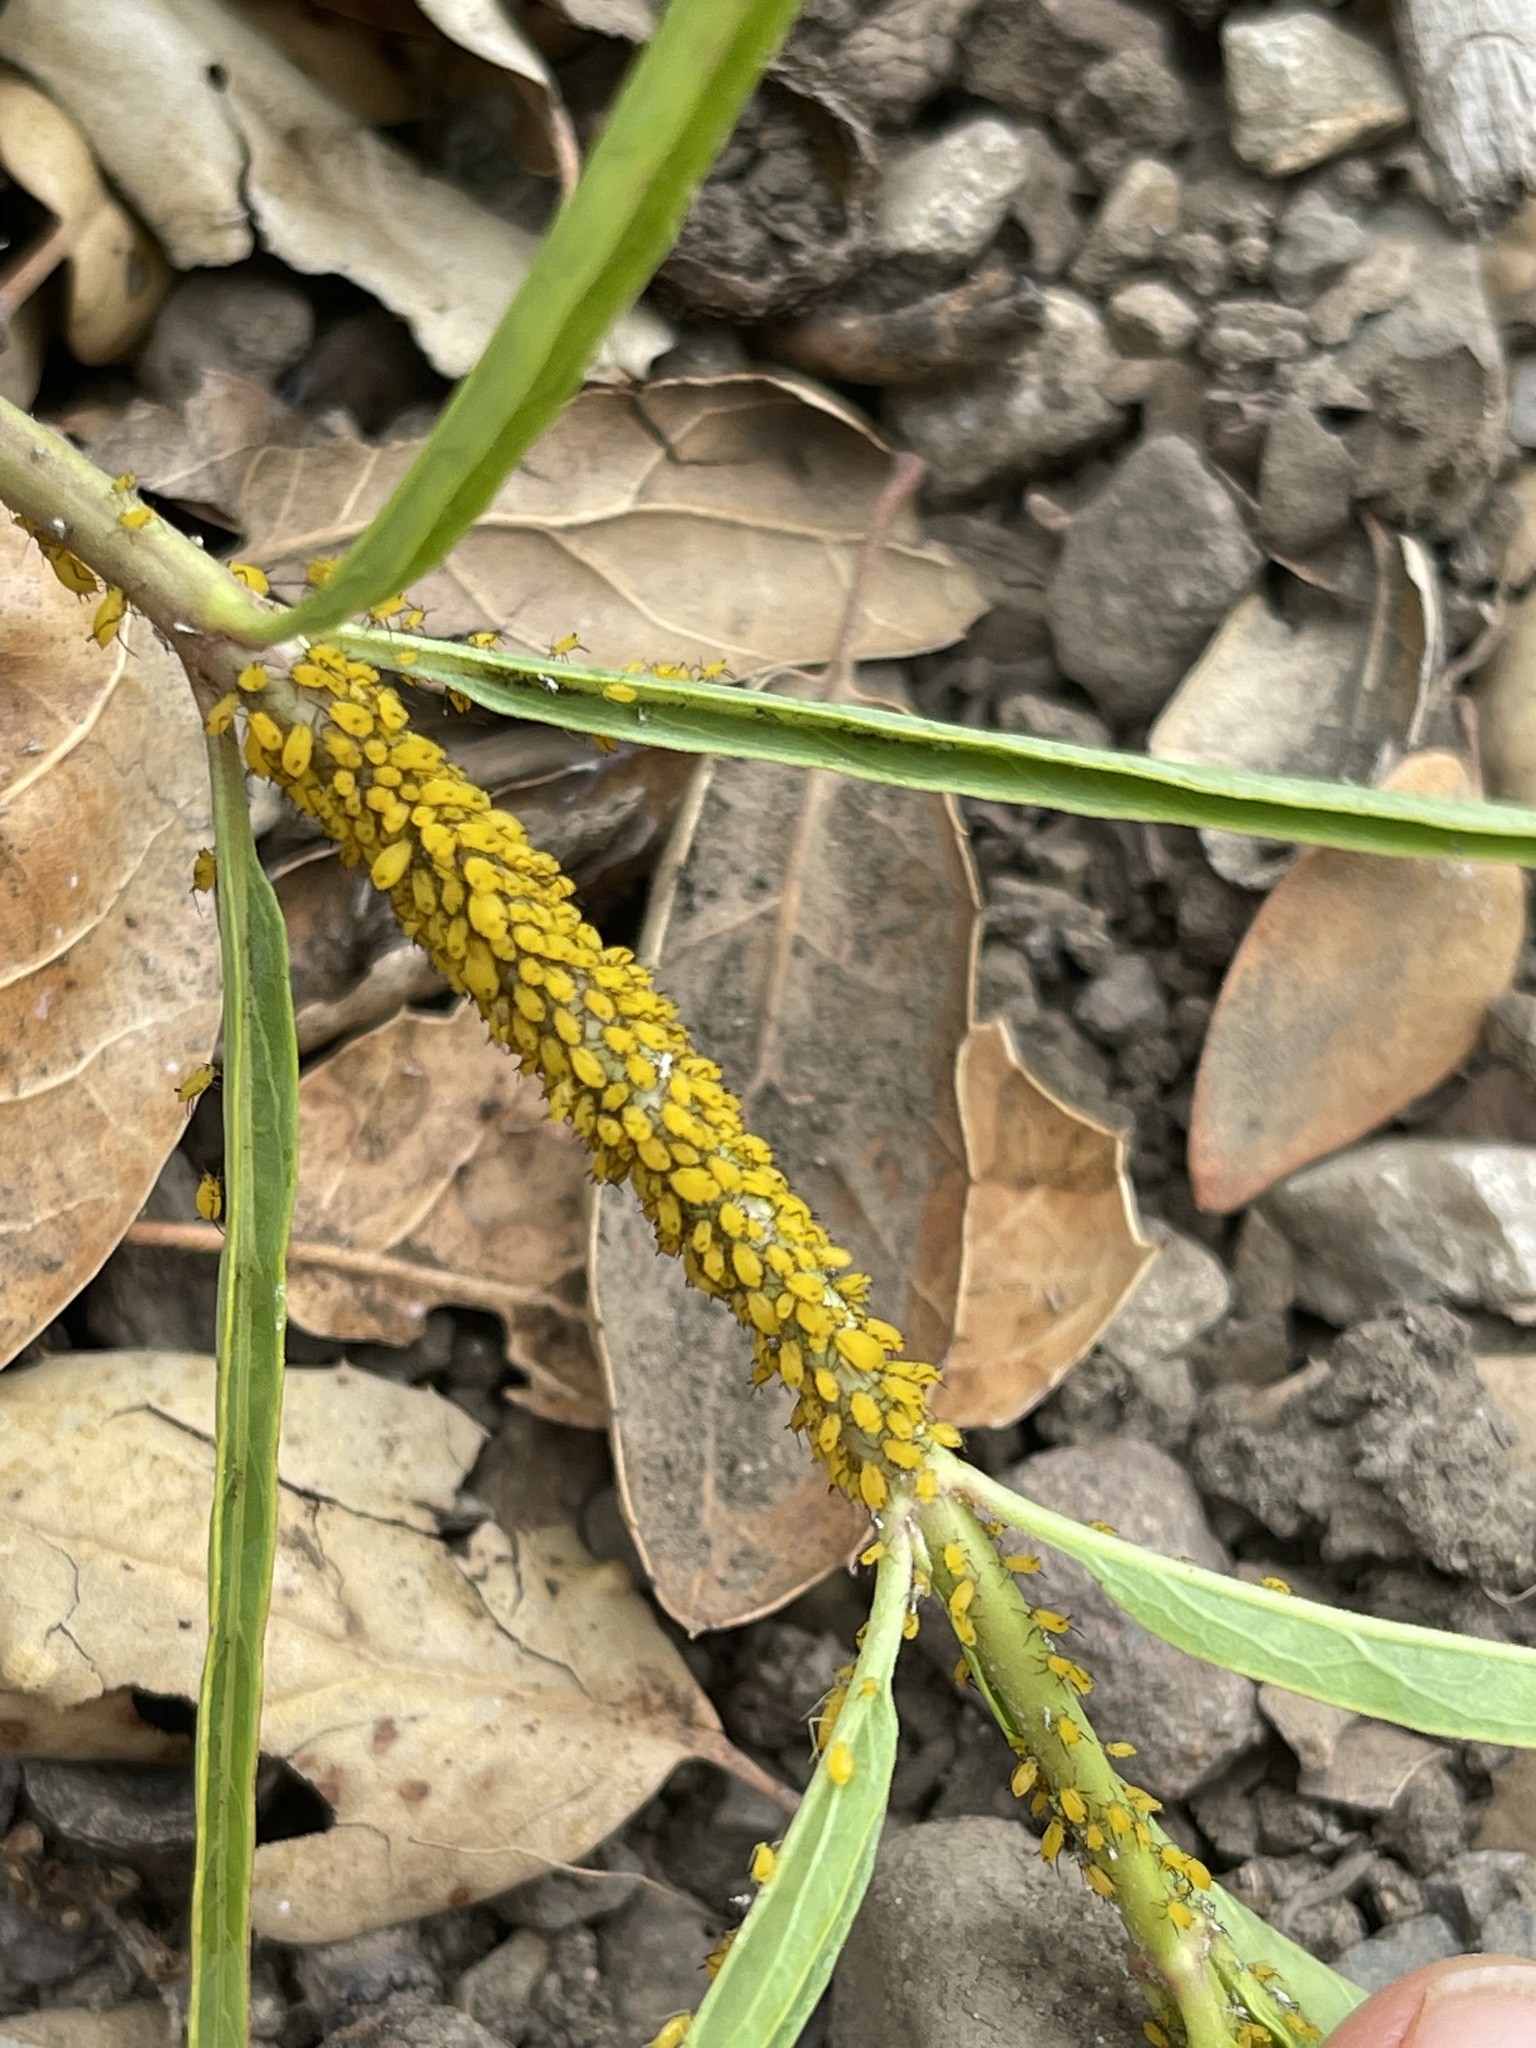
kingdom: Animalia
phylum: Arthropoda
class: Insecta
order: Hemiptera
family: Aphididae
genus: Aphis
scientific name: Aphis nerii
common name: Oleander aphid
